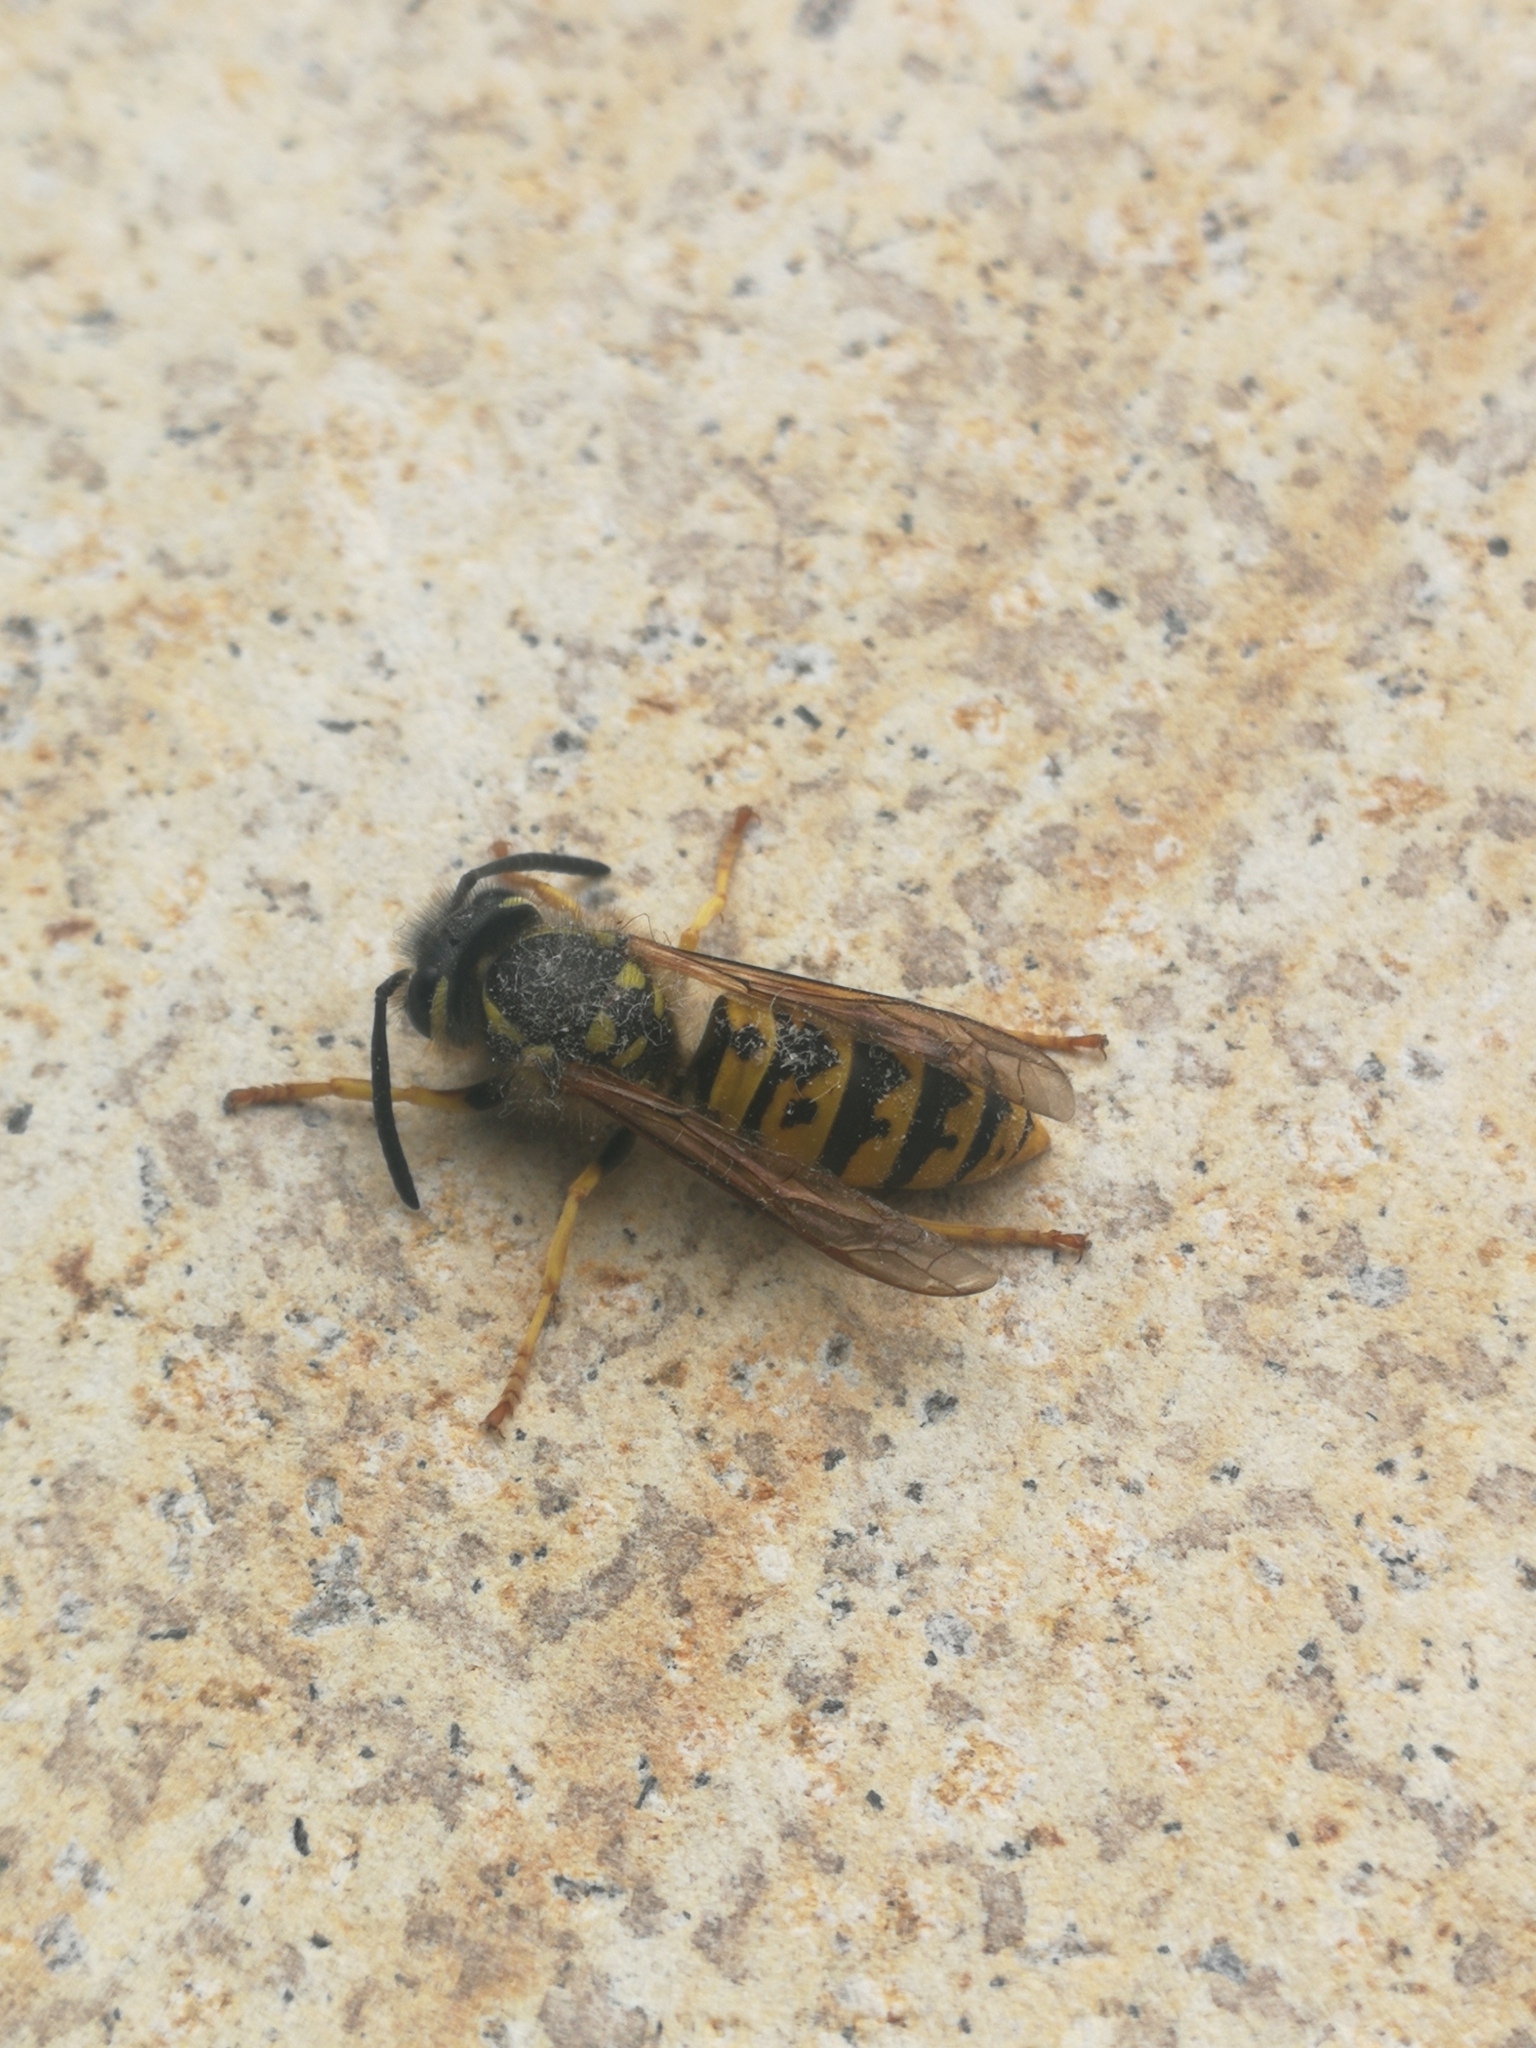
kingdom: Animalia
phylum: Arthropoda
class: Insecta
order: Hymenoptera
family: Vespidae
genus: Vespula
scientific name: Vespula germanica
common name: German wasp
